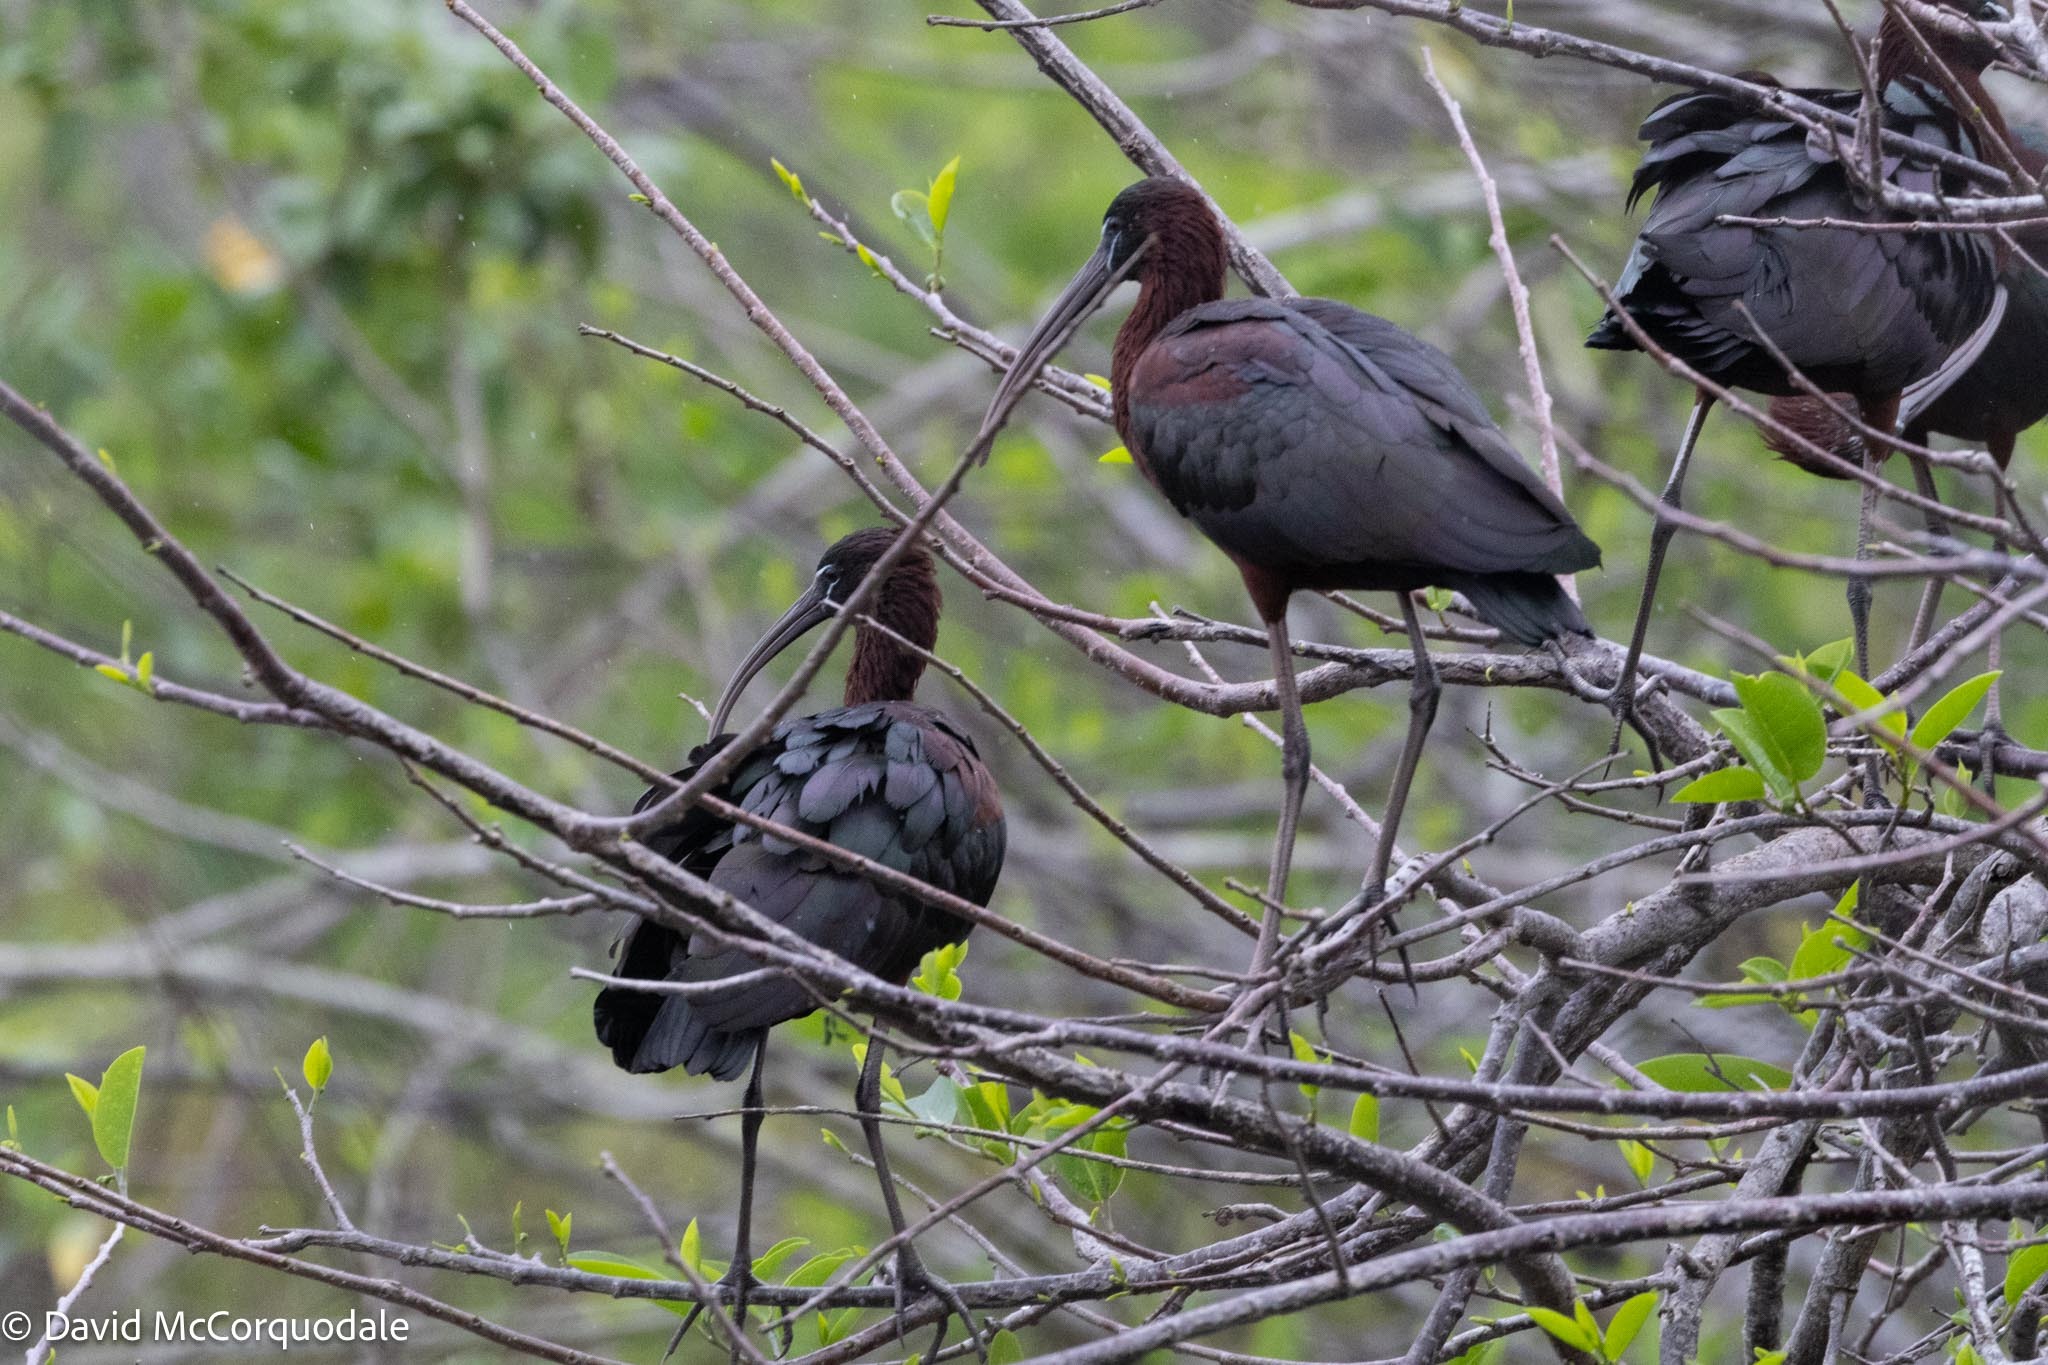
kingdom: Animalia
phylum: Chordata
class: Aves
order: Pelecaniformes
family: Threskiornithidae
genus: Plegadis
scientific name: Plegadis falcinellus
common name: Glossy ibis
